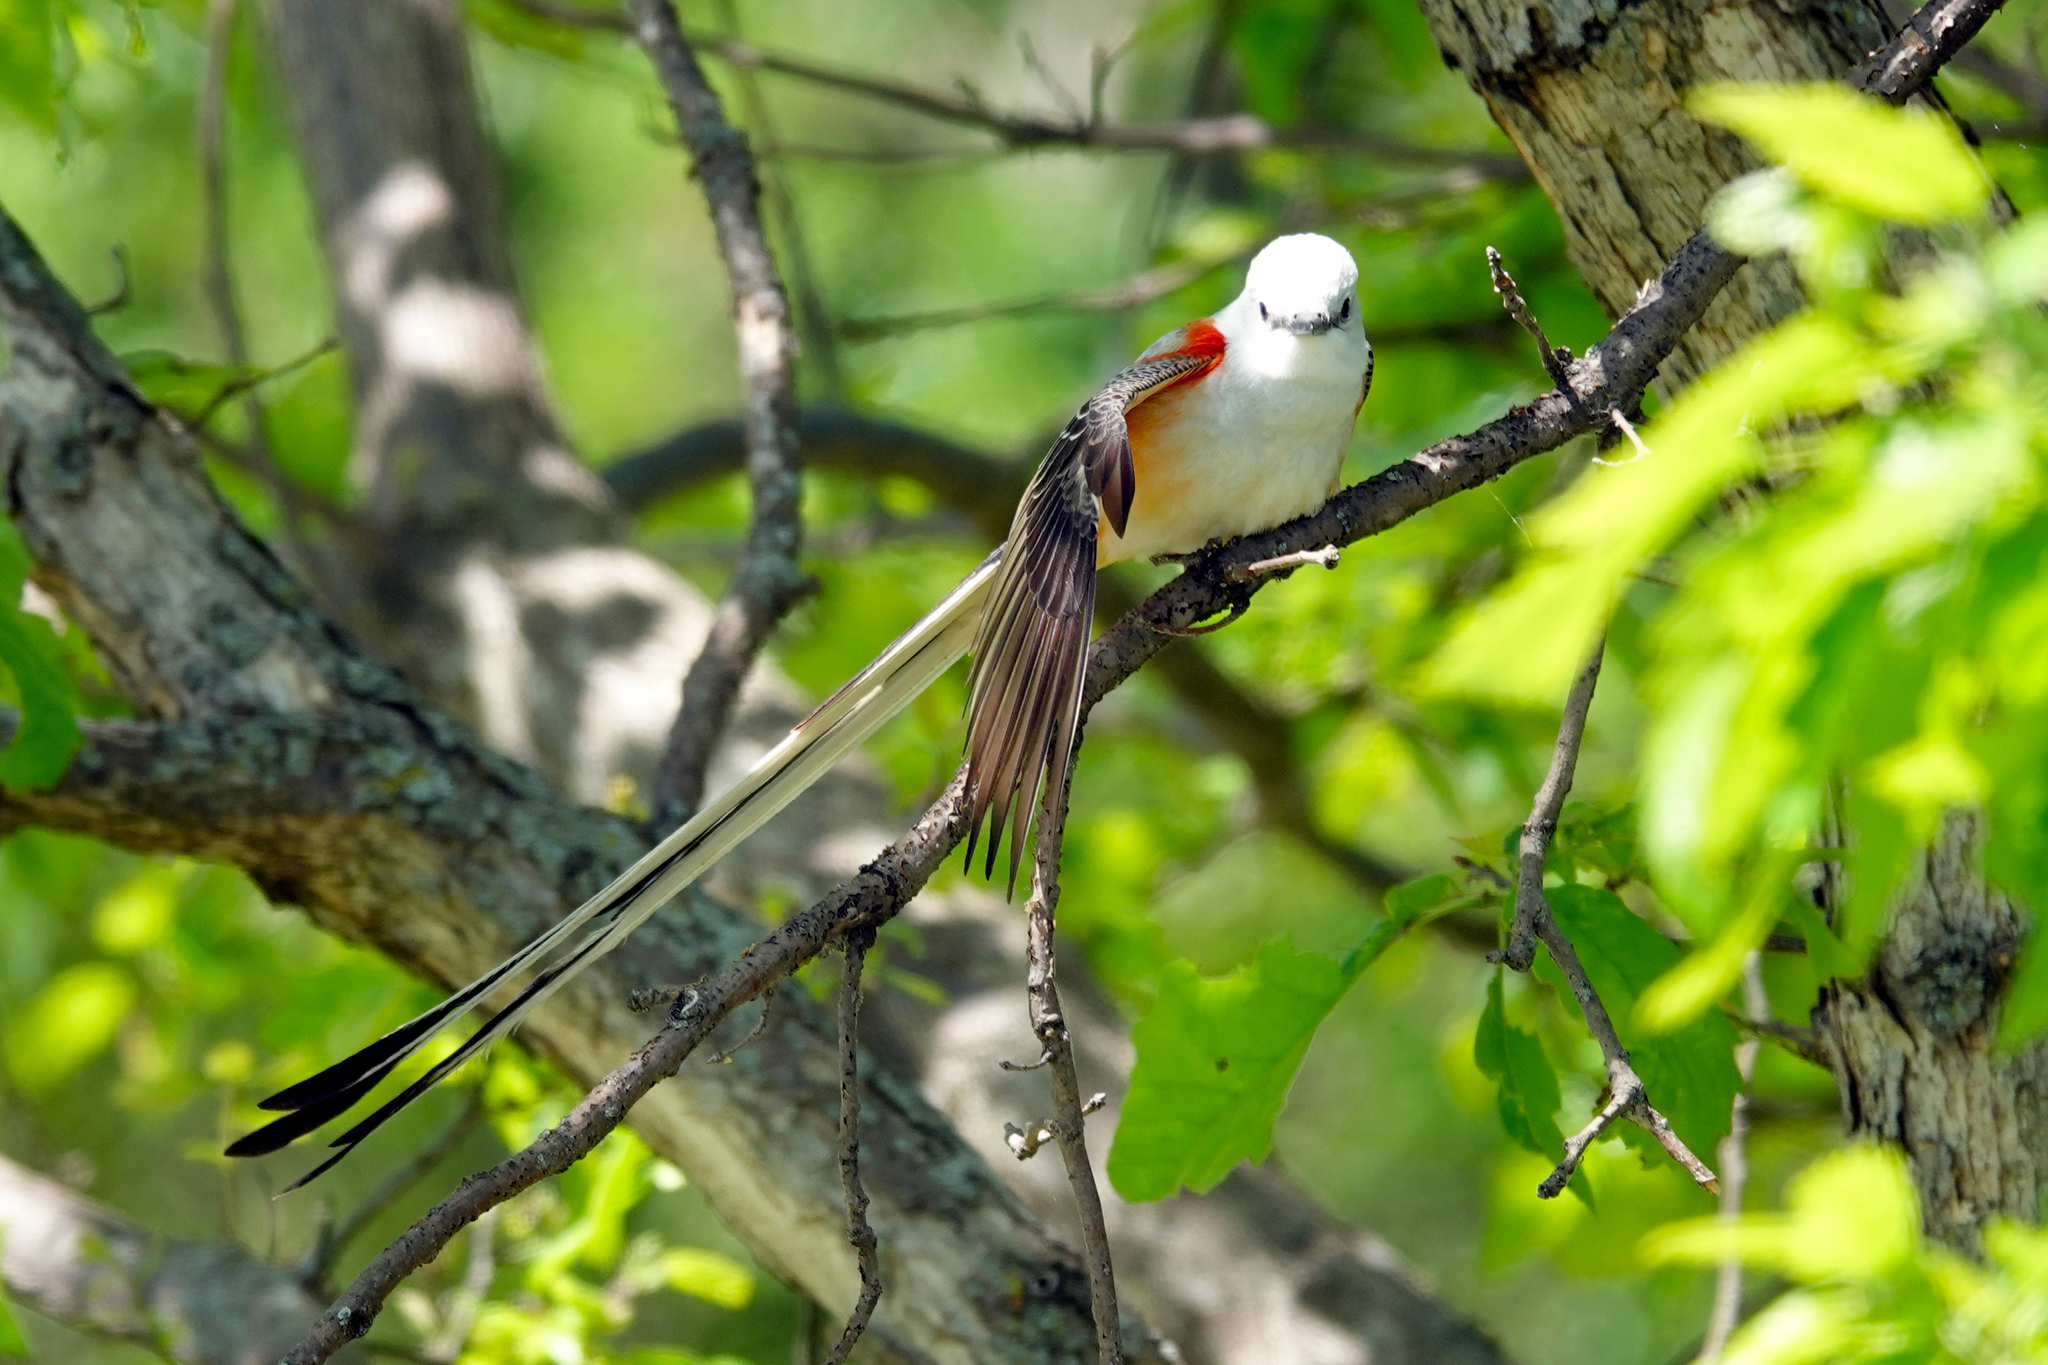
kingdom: Animalia
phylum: Chordata
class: Aves
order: Passeriformes
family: Tyrannidae
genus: Tyrannus
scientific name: Tyrannus forficatus
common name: Scissor-tailed flycatcher
